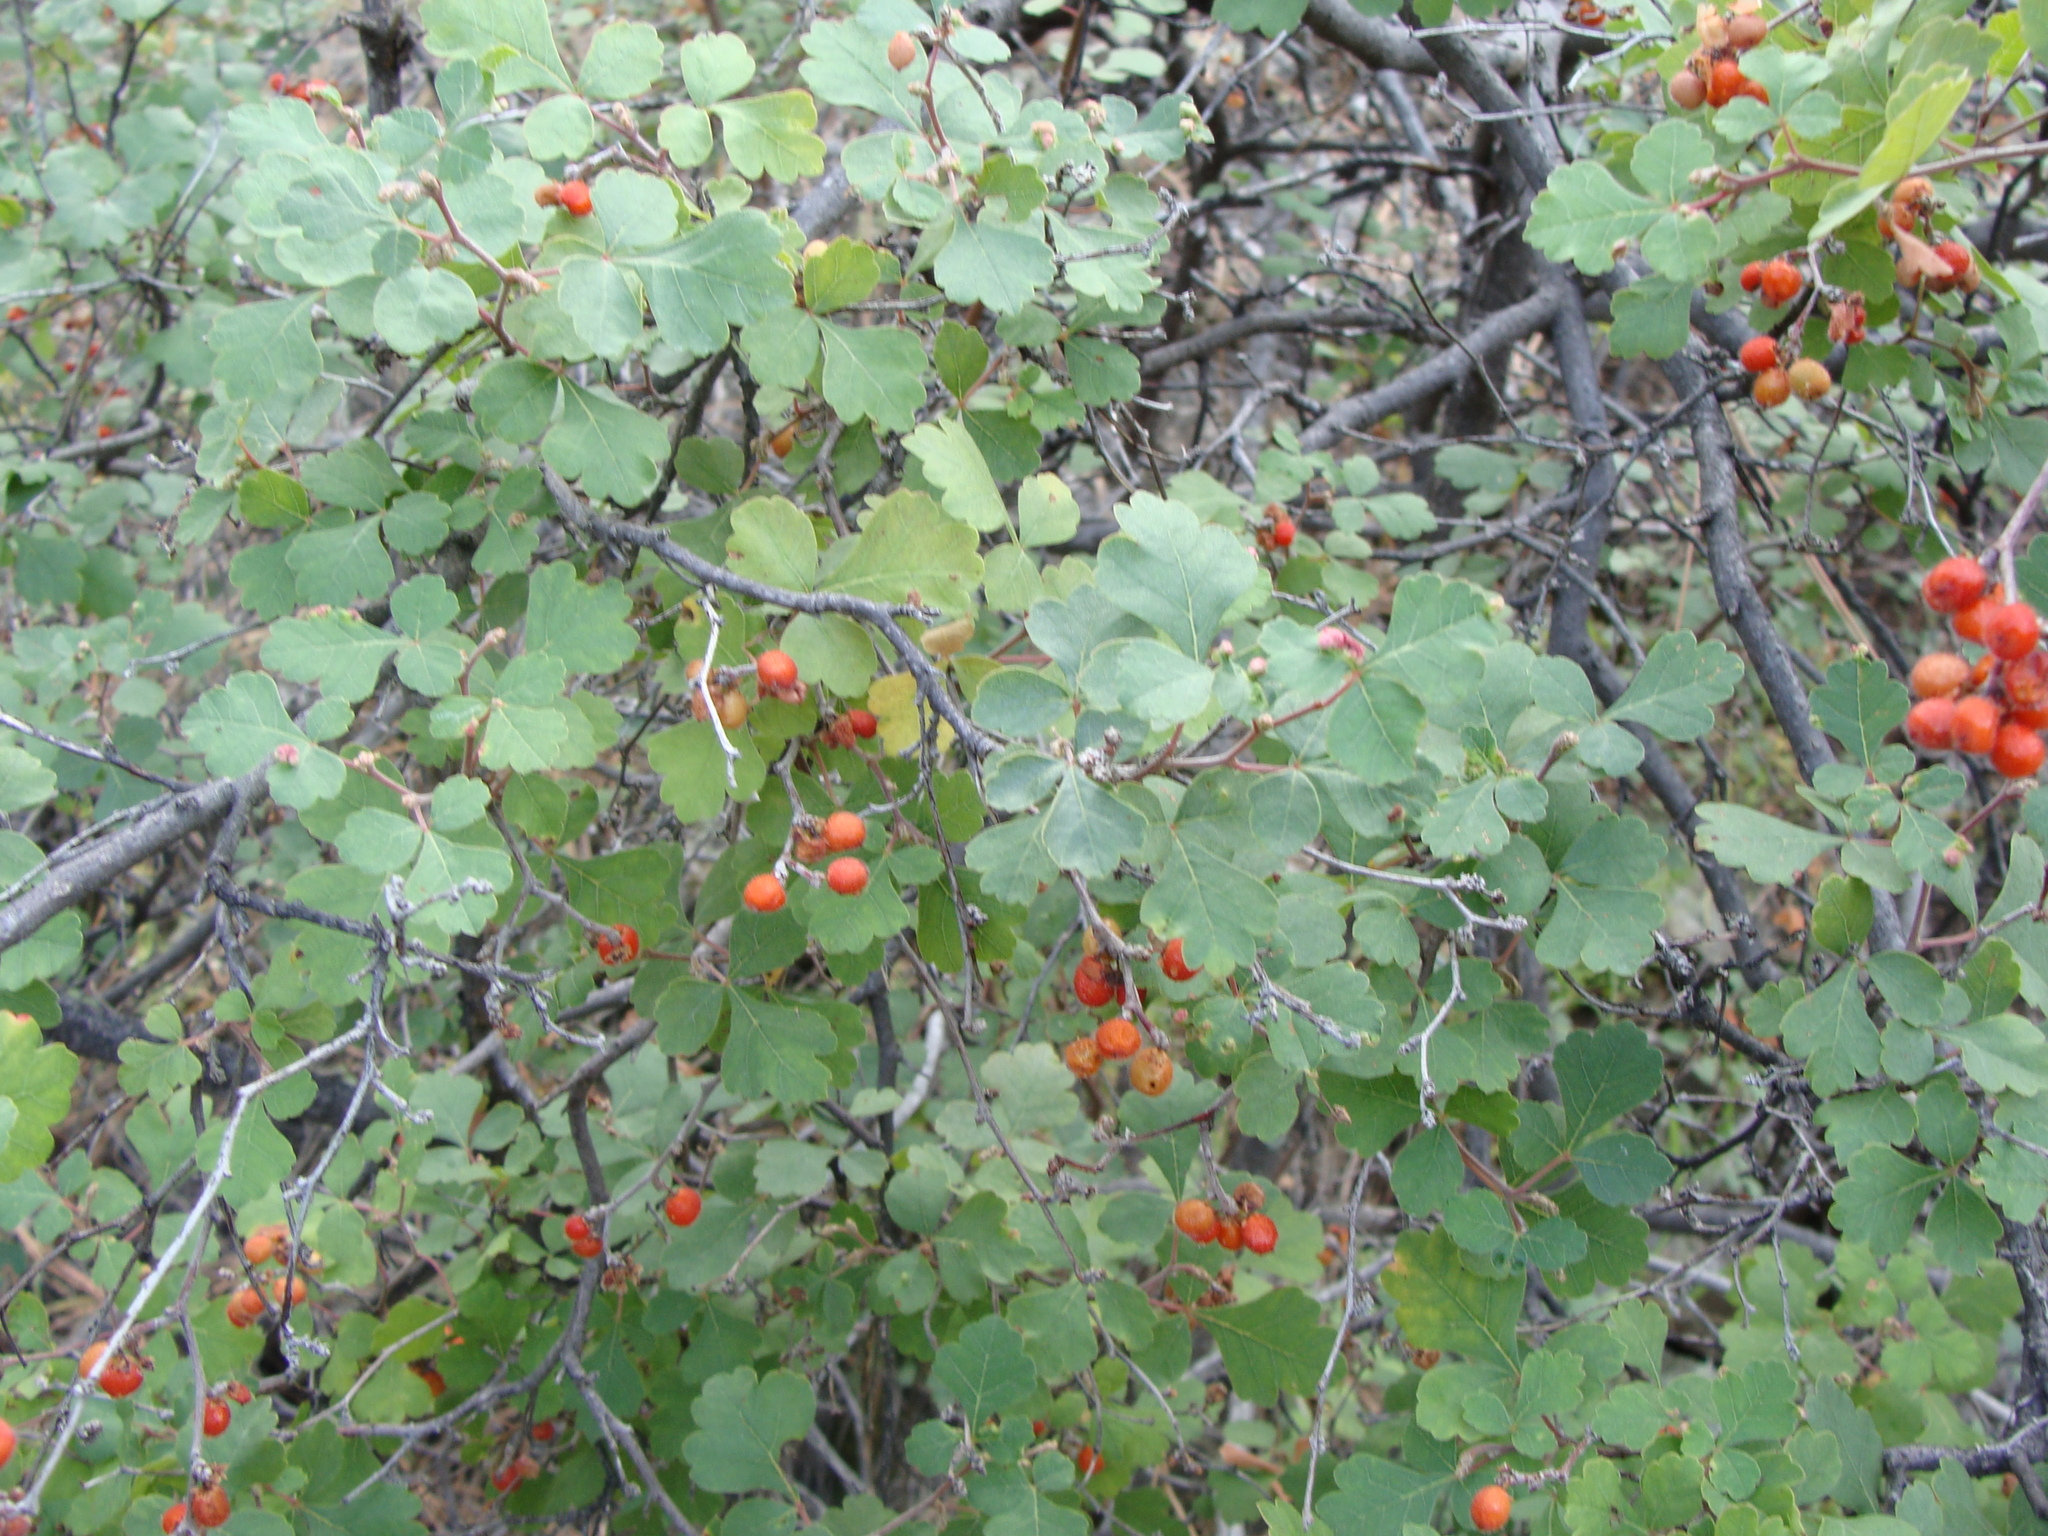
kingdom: Plantae
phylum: Tracheophyta
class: Magnoliopsida
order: Sapindales
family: Anacardiaceae
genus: Rhus
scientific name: Rhus aromatica
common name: Aromatic sumac
